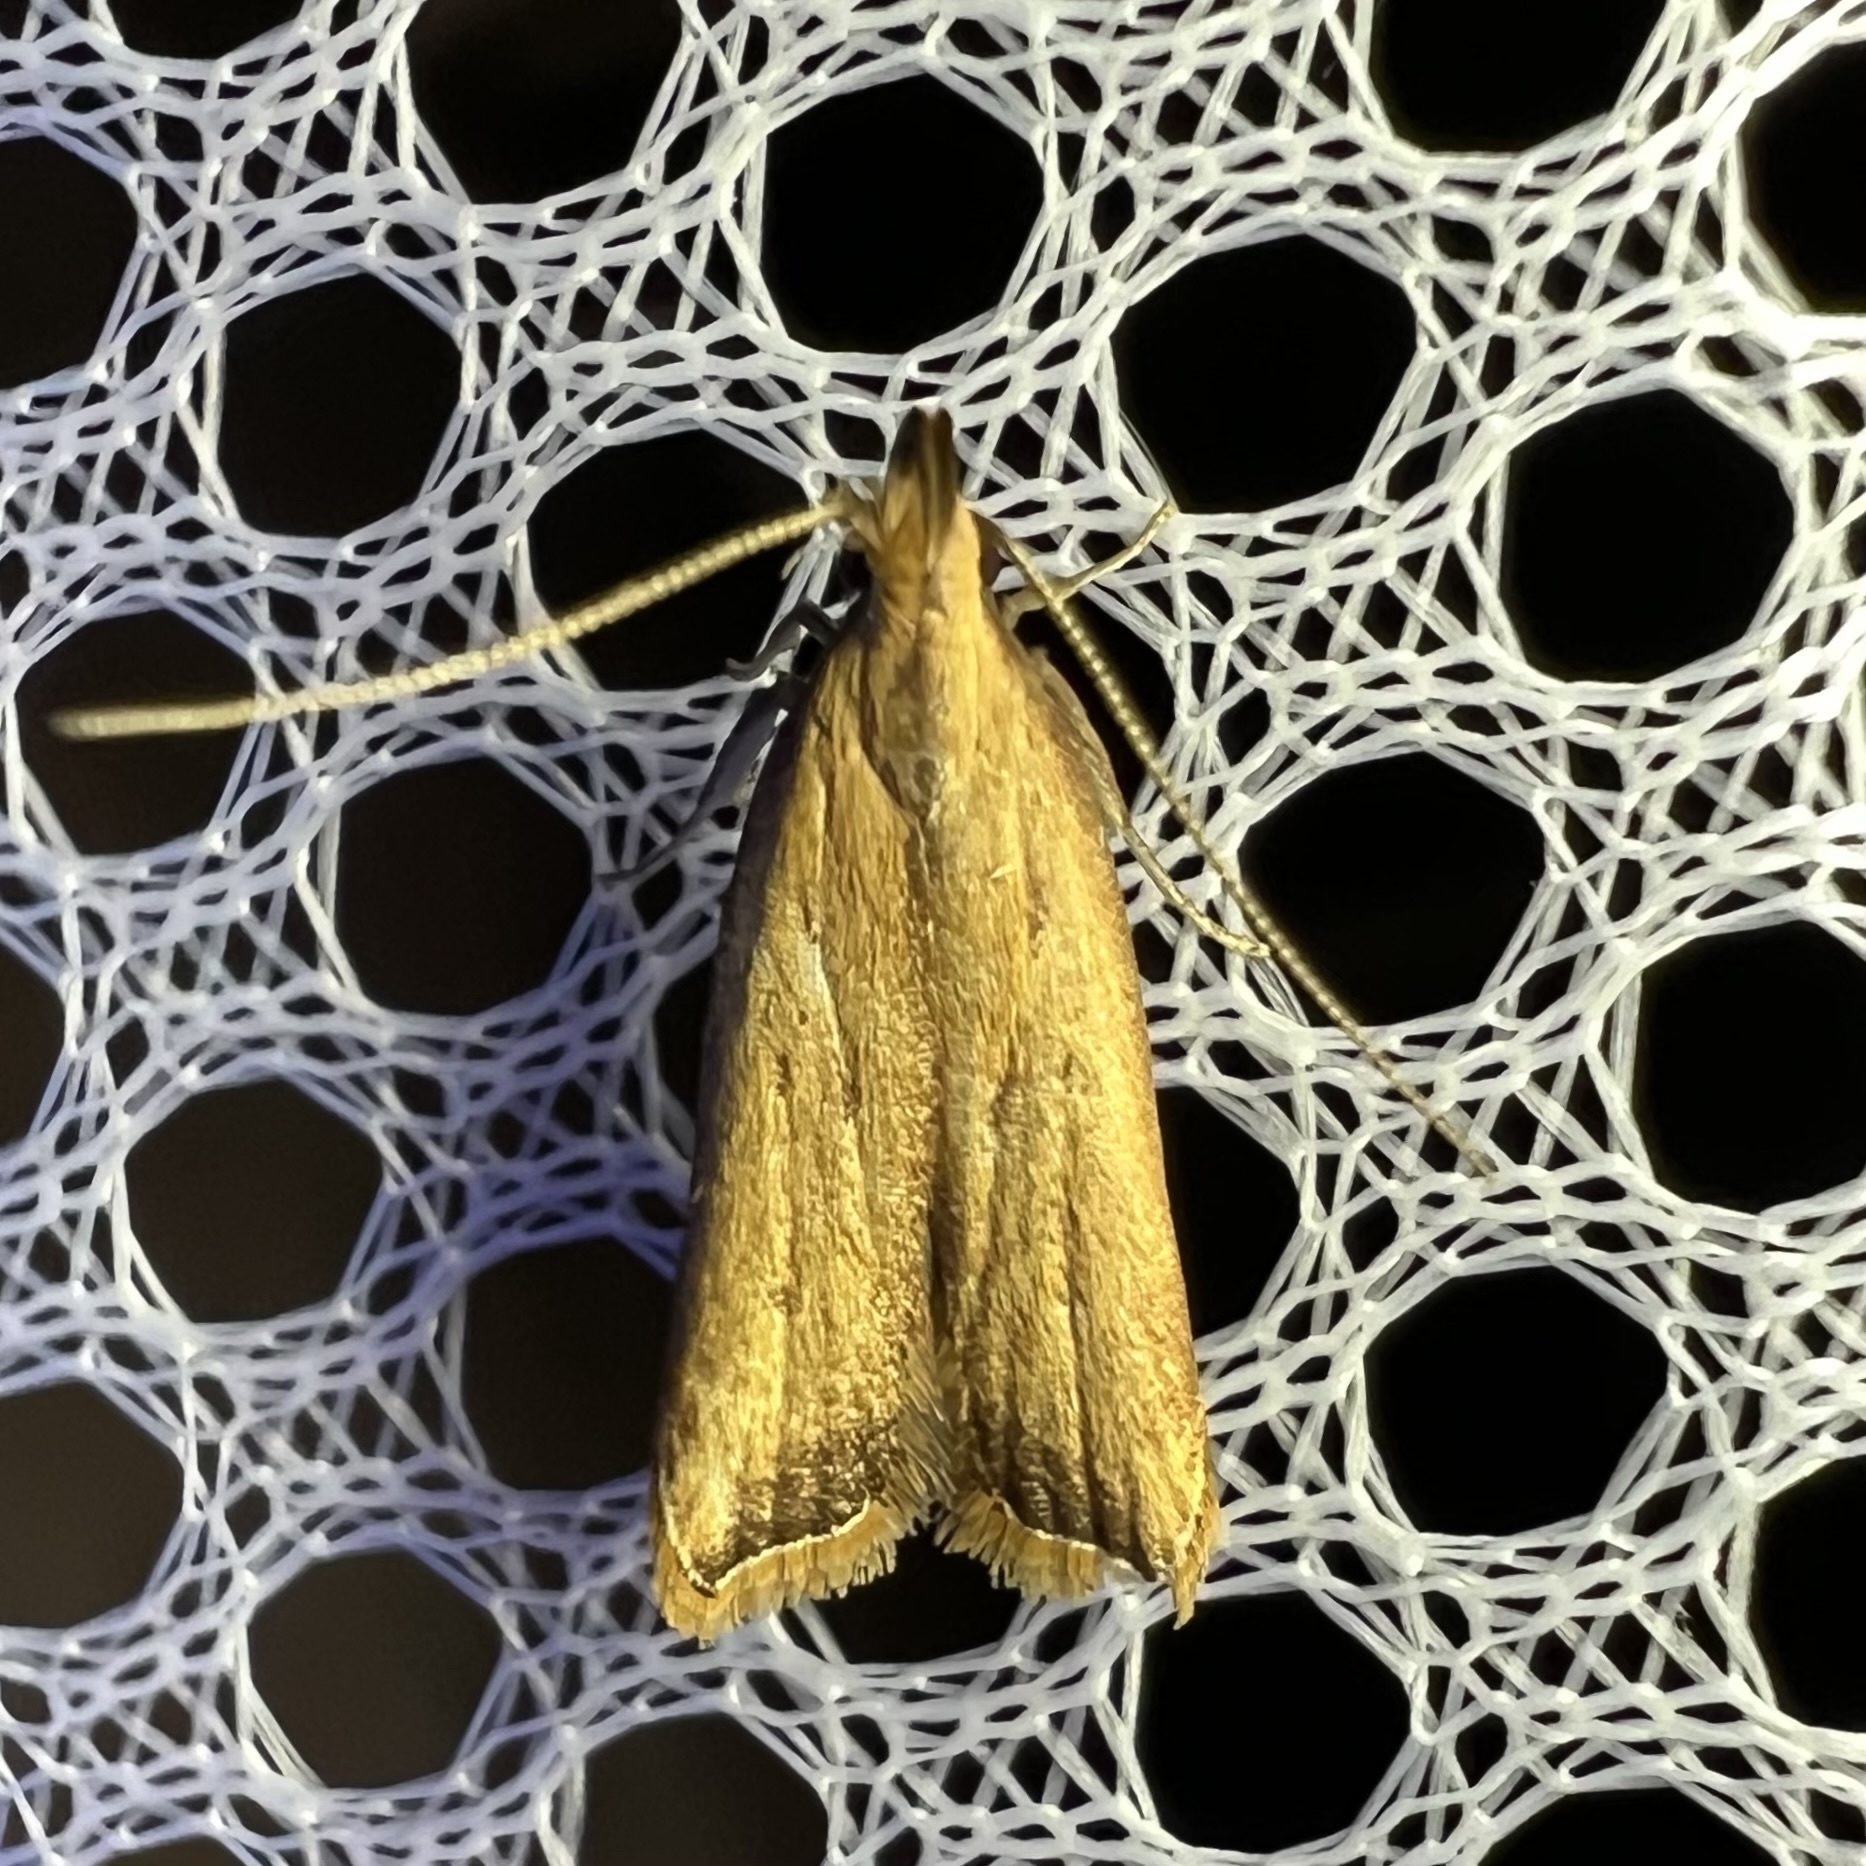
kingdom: Animalia
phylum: Arthropoda
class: Insecta
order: Lepidoptera
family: Gelechiidae
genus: Dichomeris
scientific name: Dichomeris heriguronis
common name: Black-edged dichomeris moth
